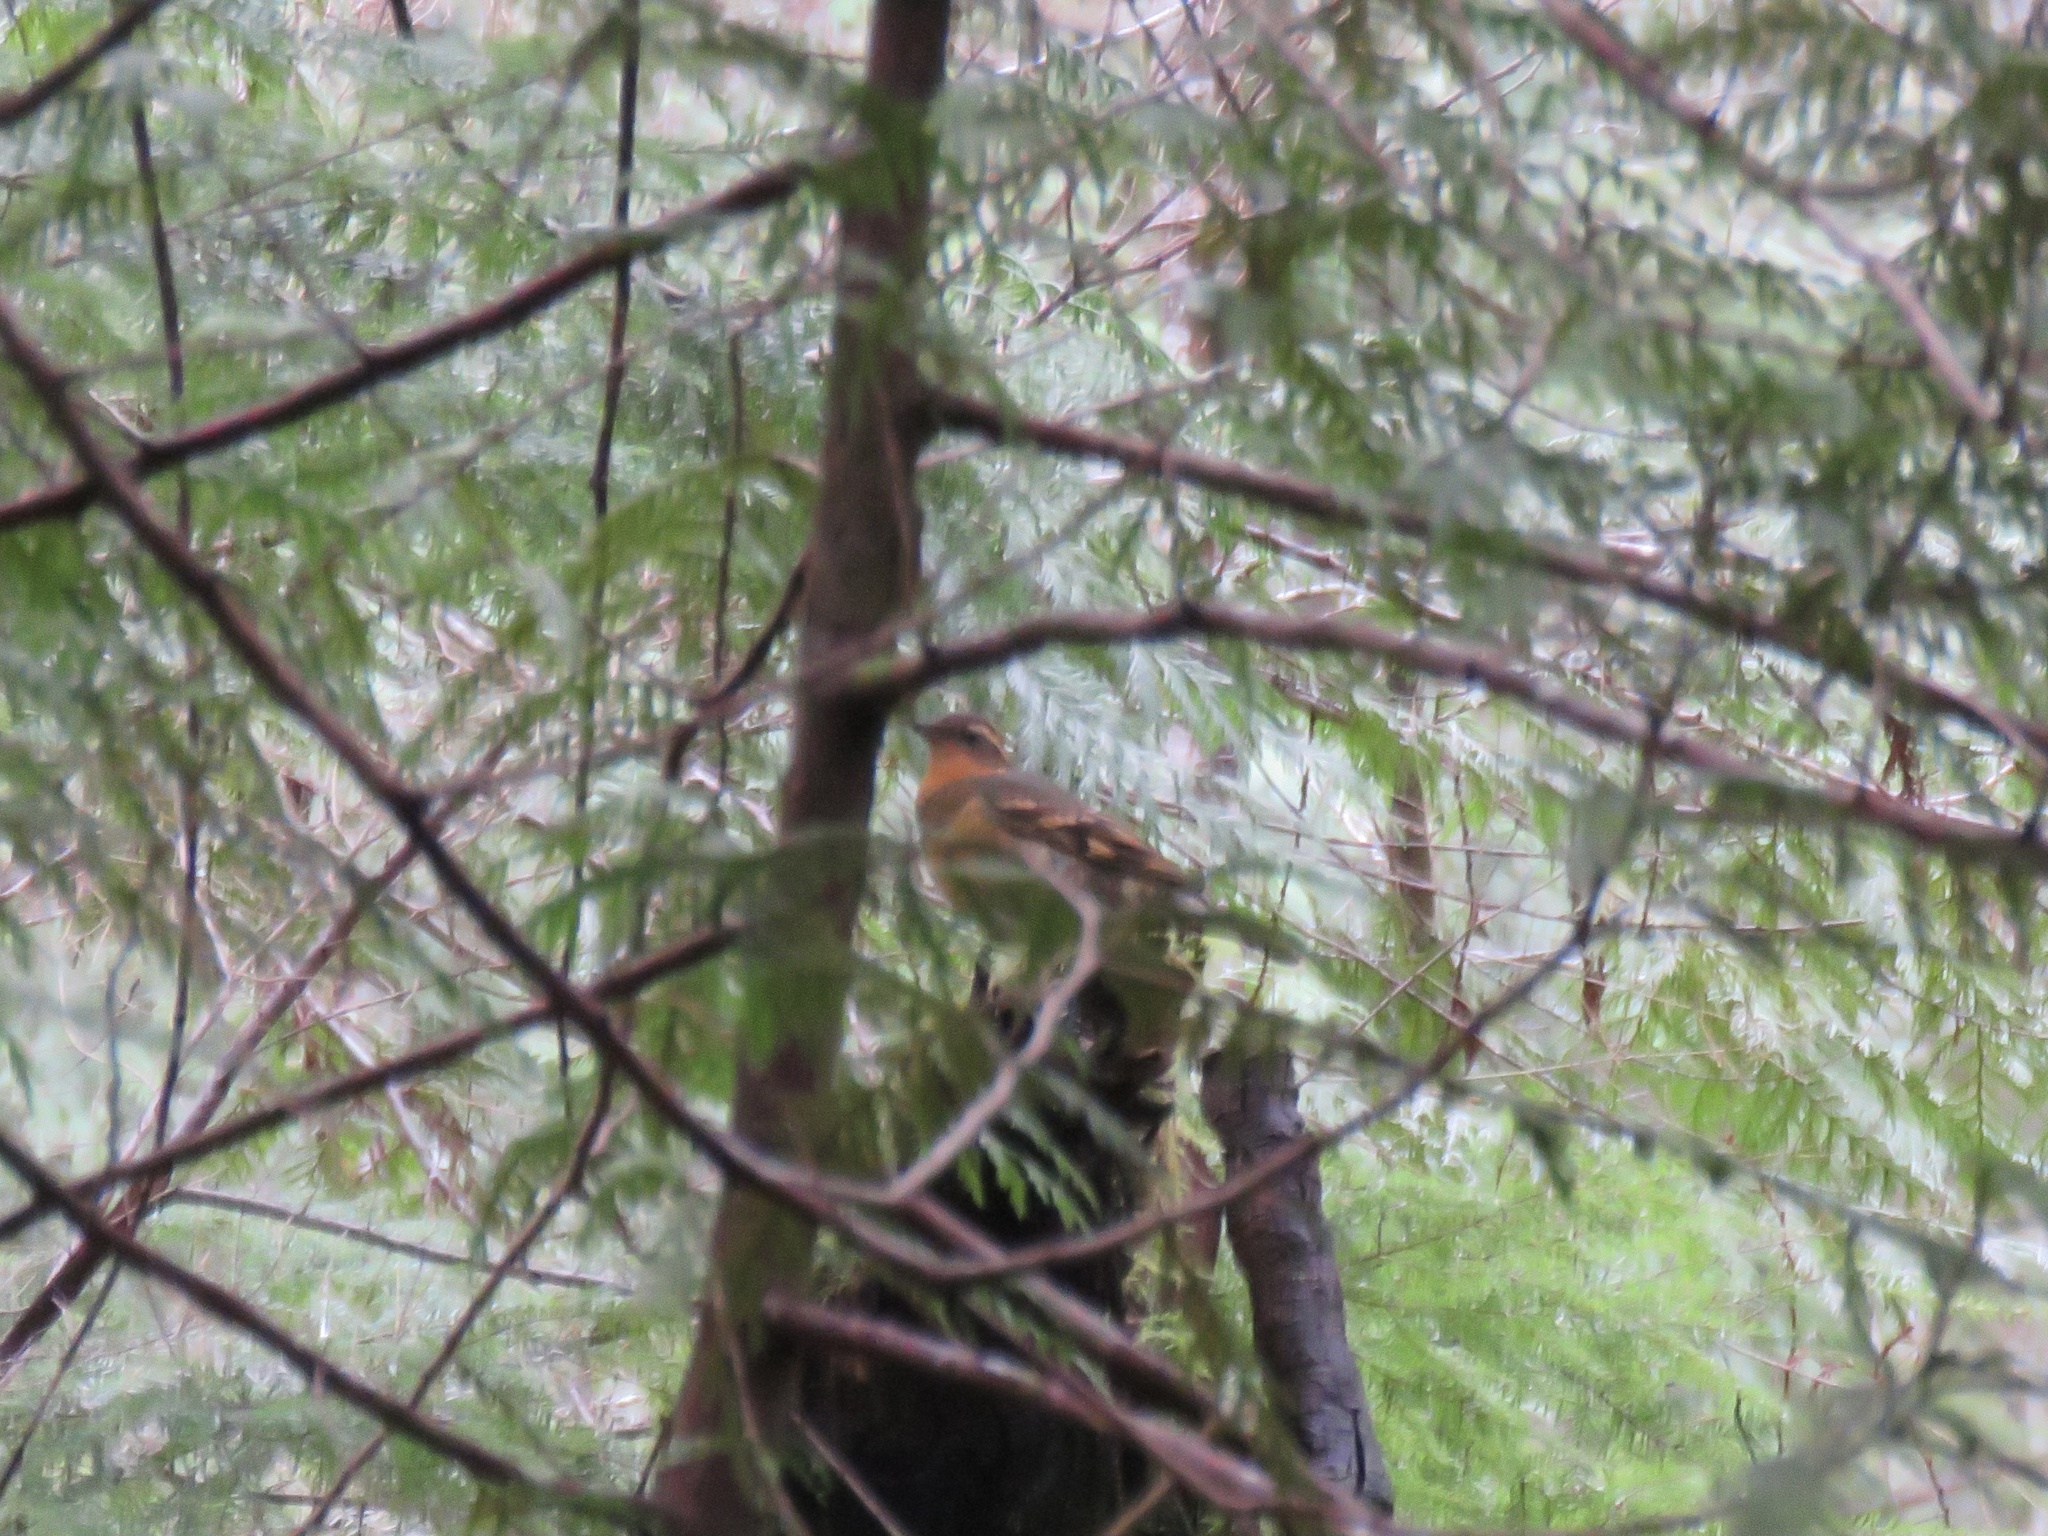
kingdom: Animalia
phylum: Chordata
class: Aves
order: Passeriformes
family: Turdidae
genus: Ixoreus
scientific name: Ixoreus naevius
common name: Varied thrush
